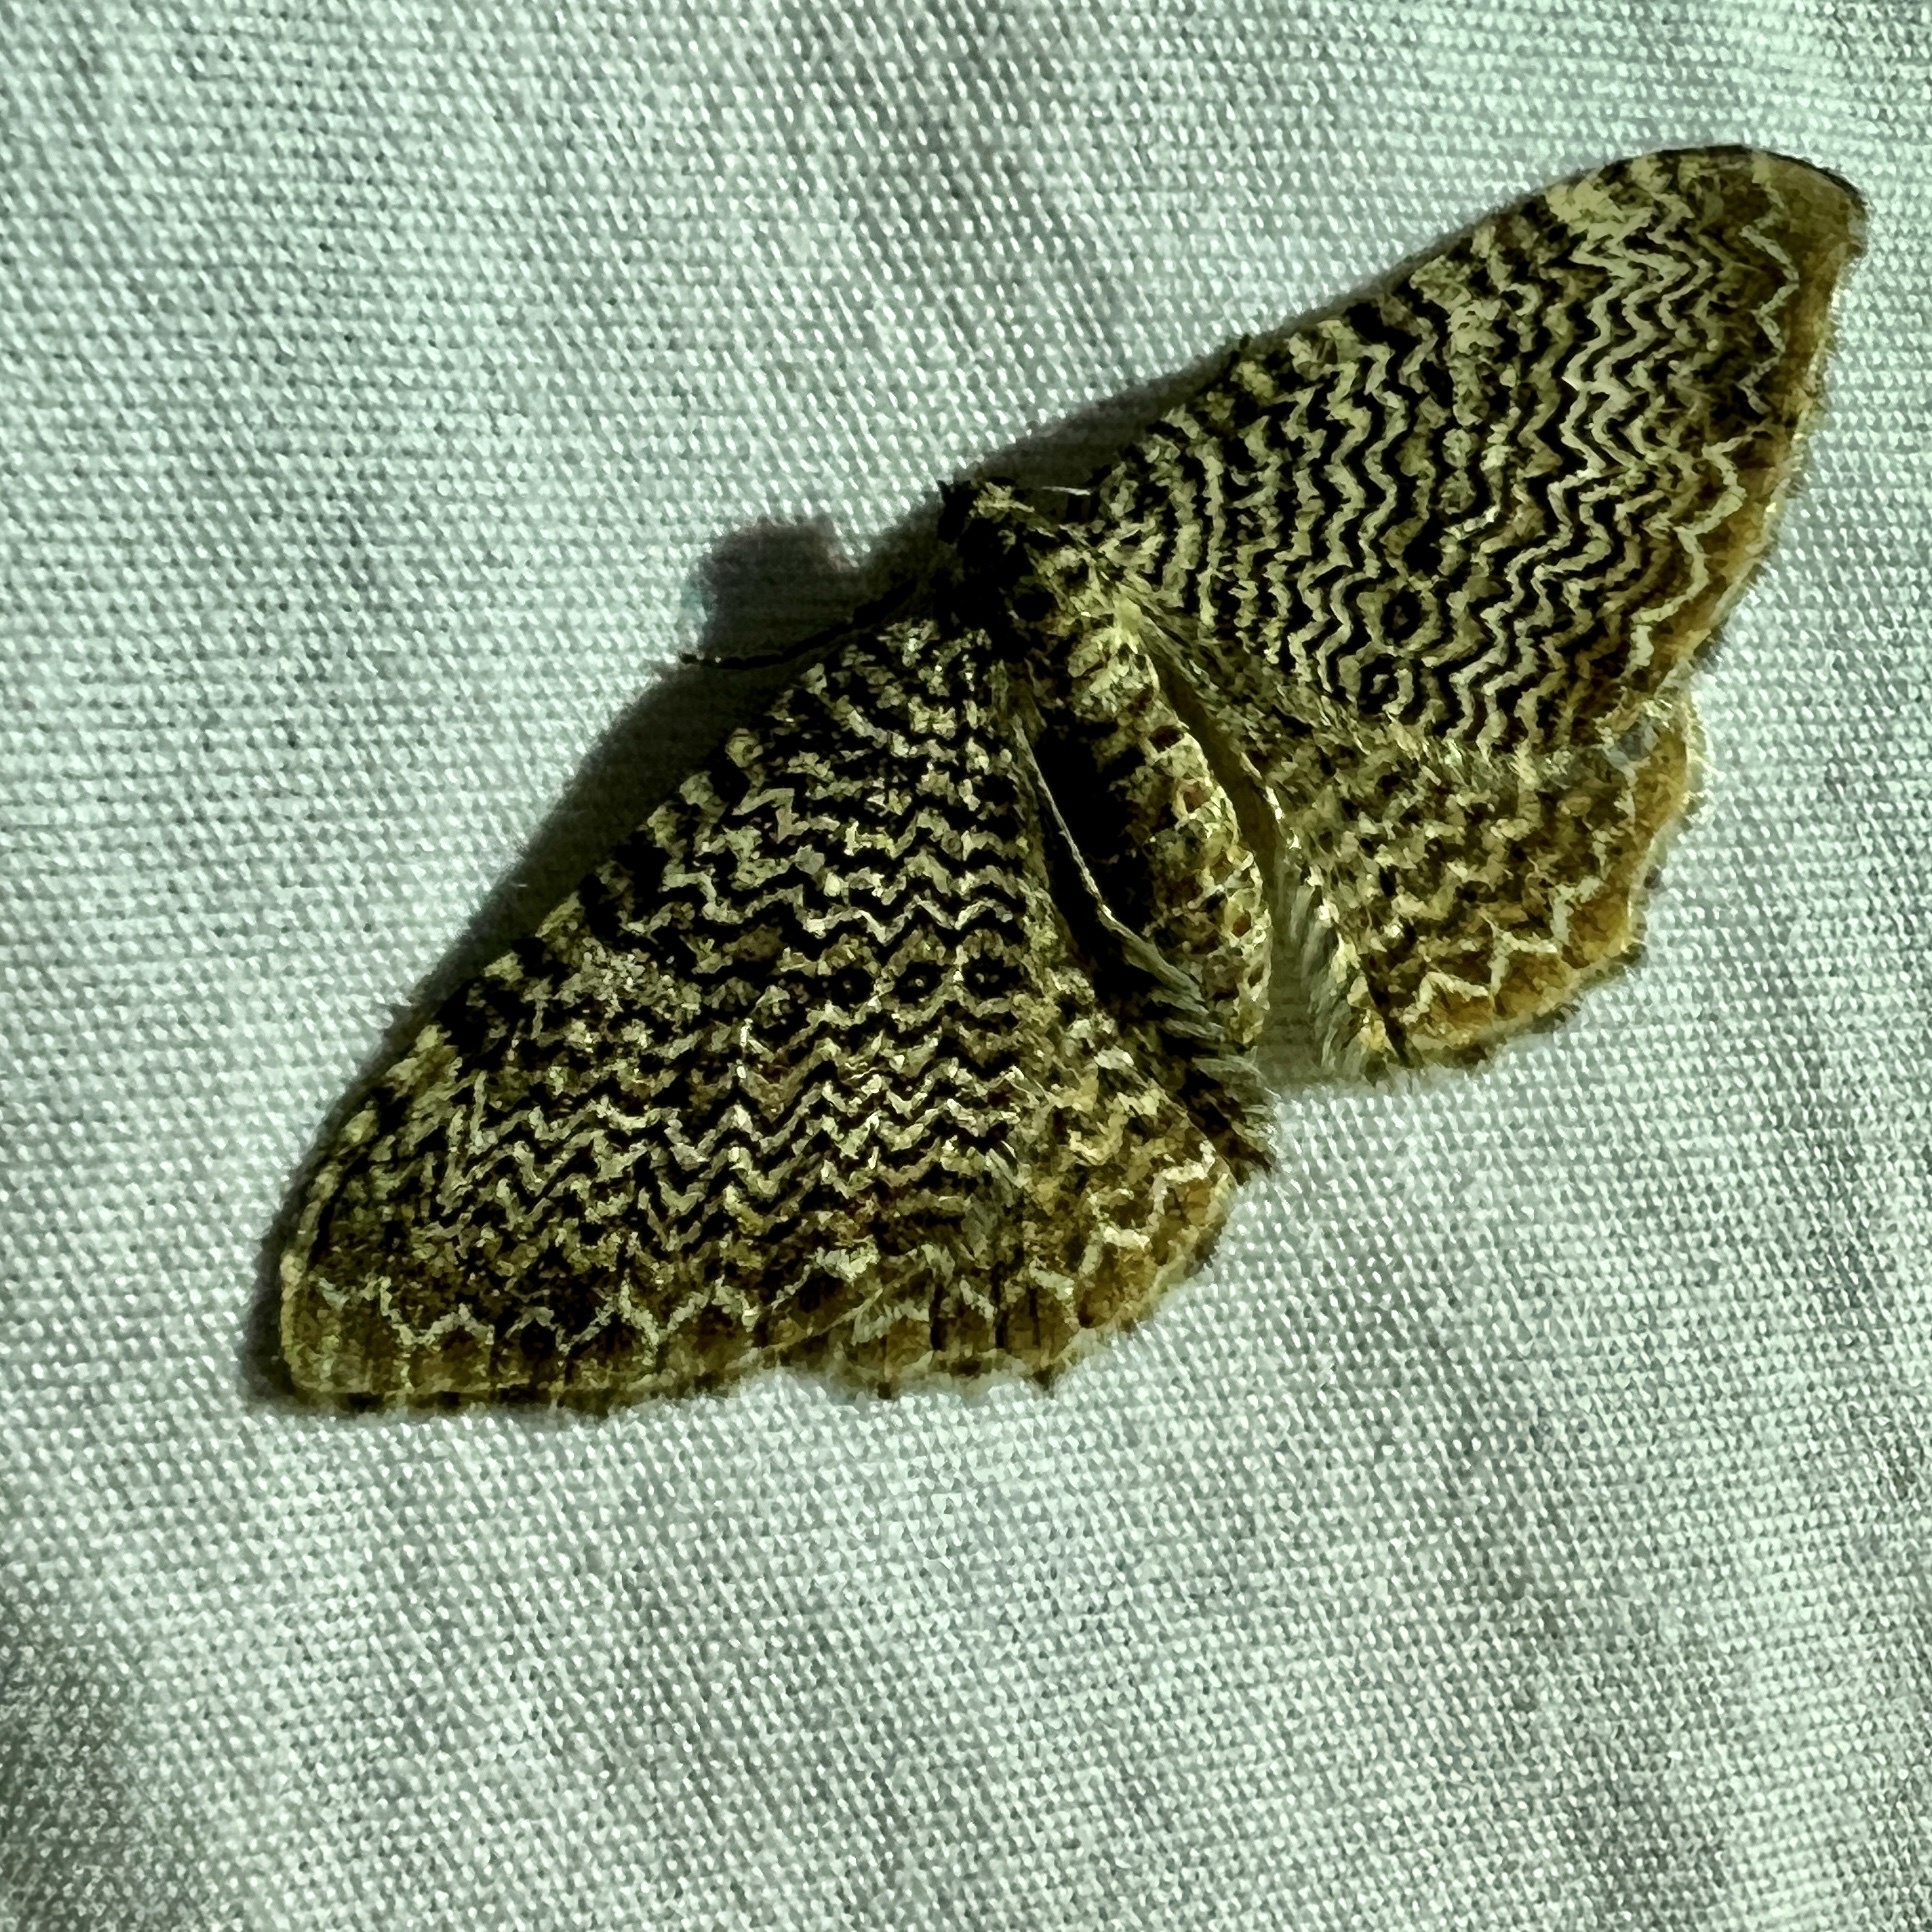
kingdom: Animalia
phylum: Arthropoda
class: Insecta
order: Lepidoptera
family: Geometridae
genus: Rheumaptera
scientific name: Rheumaptera
